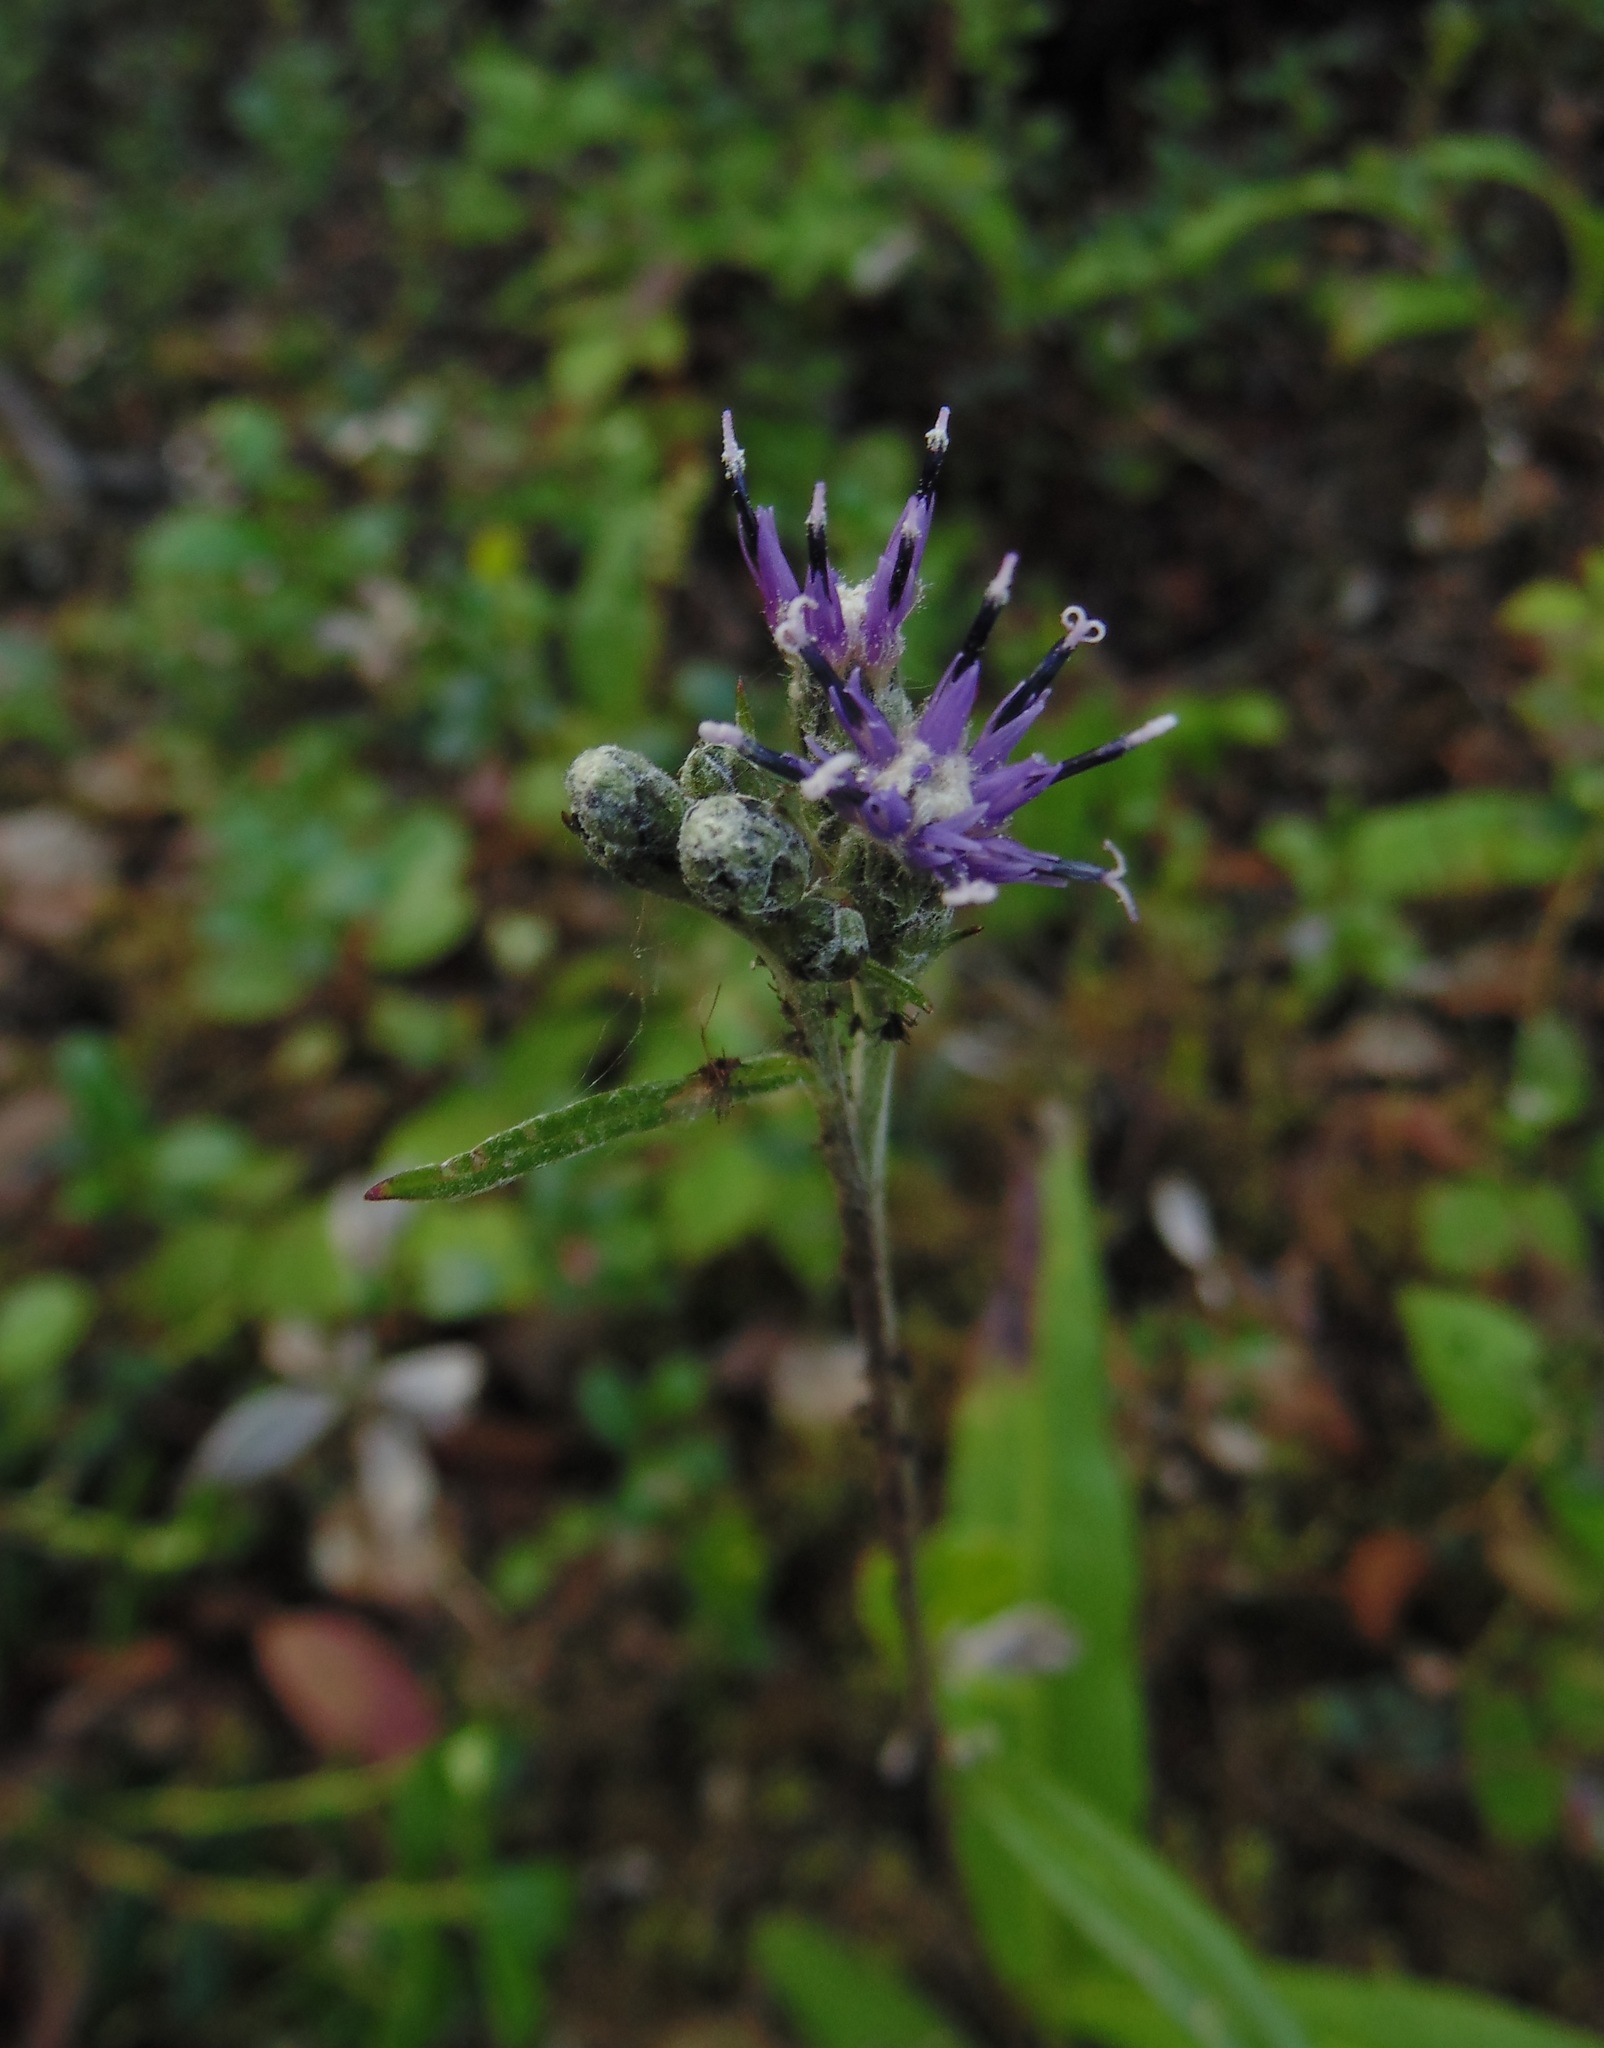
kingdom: Plantae
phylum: Tracheophyta
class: Magnoliopsida
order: Asterales
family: Asteraceae
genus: Saussurea
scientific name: Saussurea alpina
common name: Alpine saw-wort
